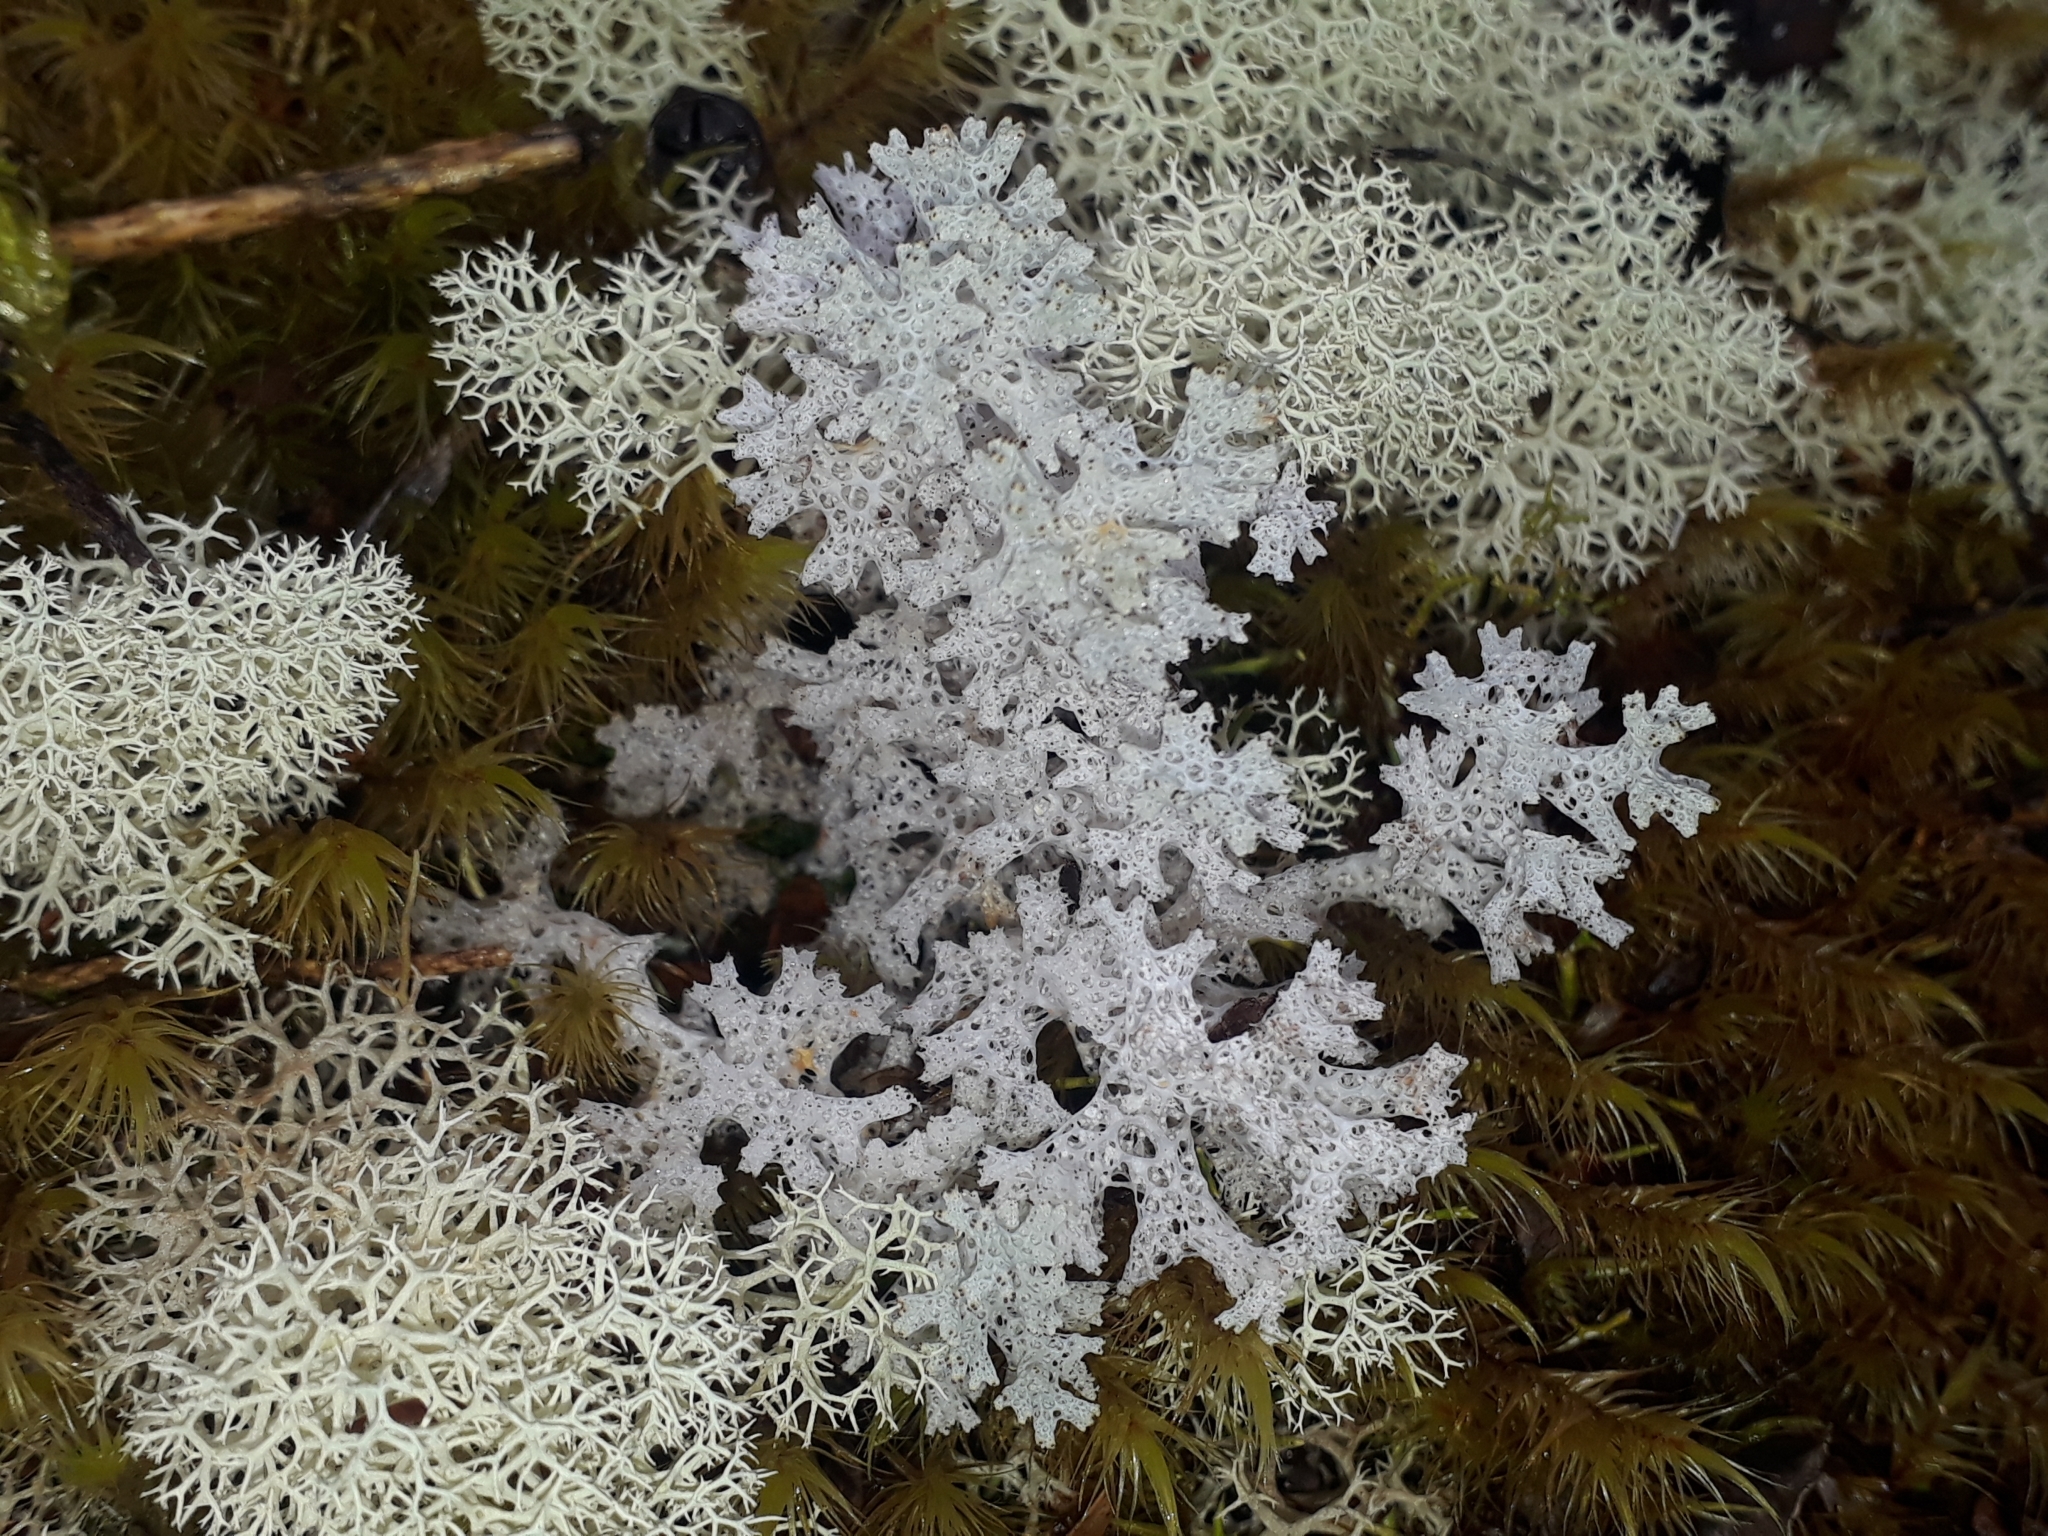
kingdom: Fungi
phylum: Ascomycota
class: Lecanoromycetes
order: Lecanorales
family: Cladoniaceae
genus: Pulchrocladia
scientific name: Pulchrocladia retipora
